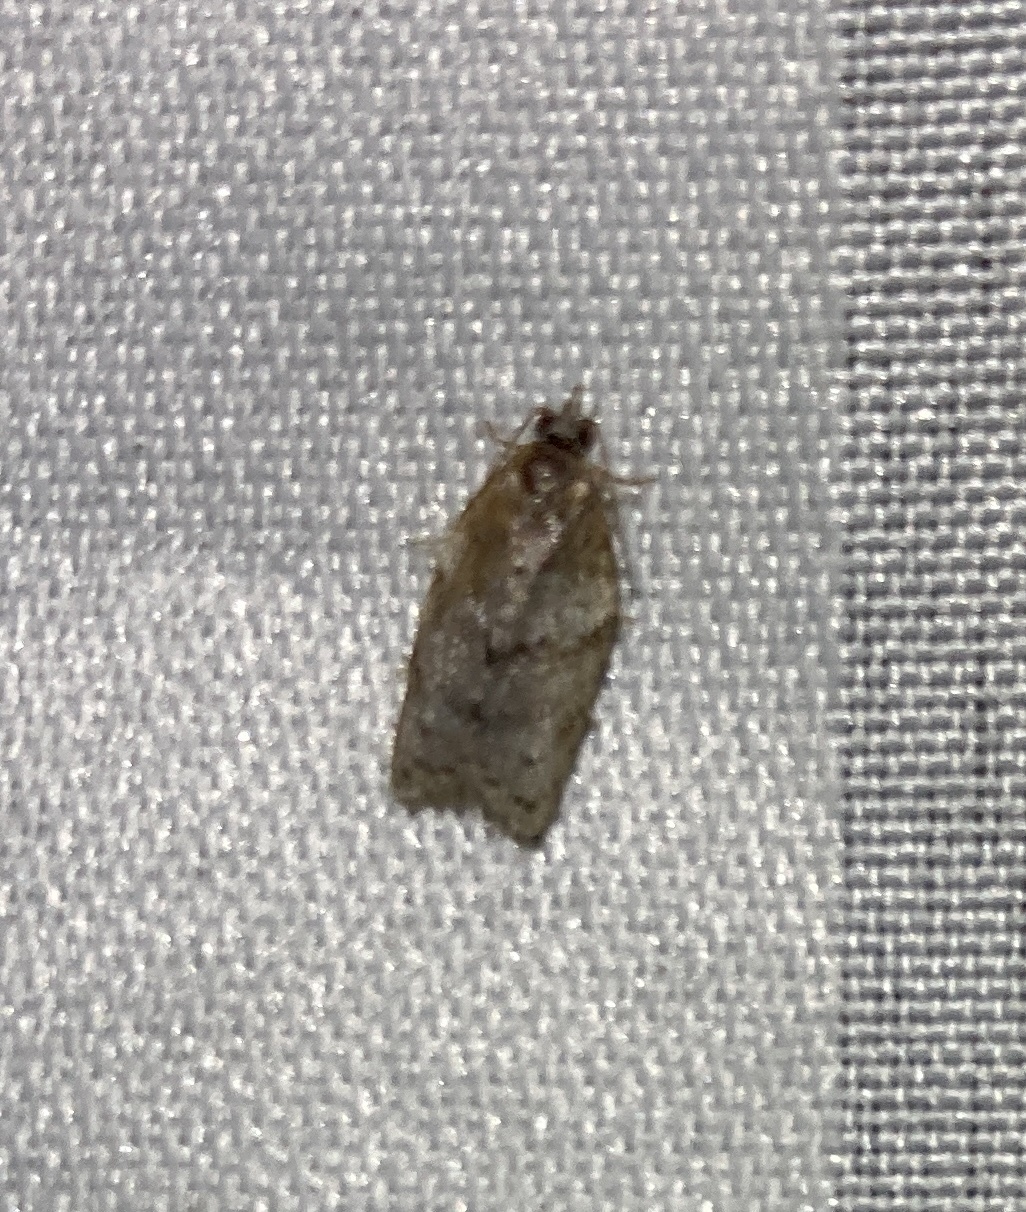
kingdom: Animalia
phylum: Arthropoda
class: Insecta
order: Lepidoptera
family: Tortricidae
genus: Isotenes
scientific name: Isotenes miserana
